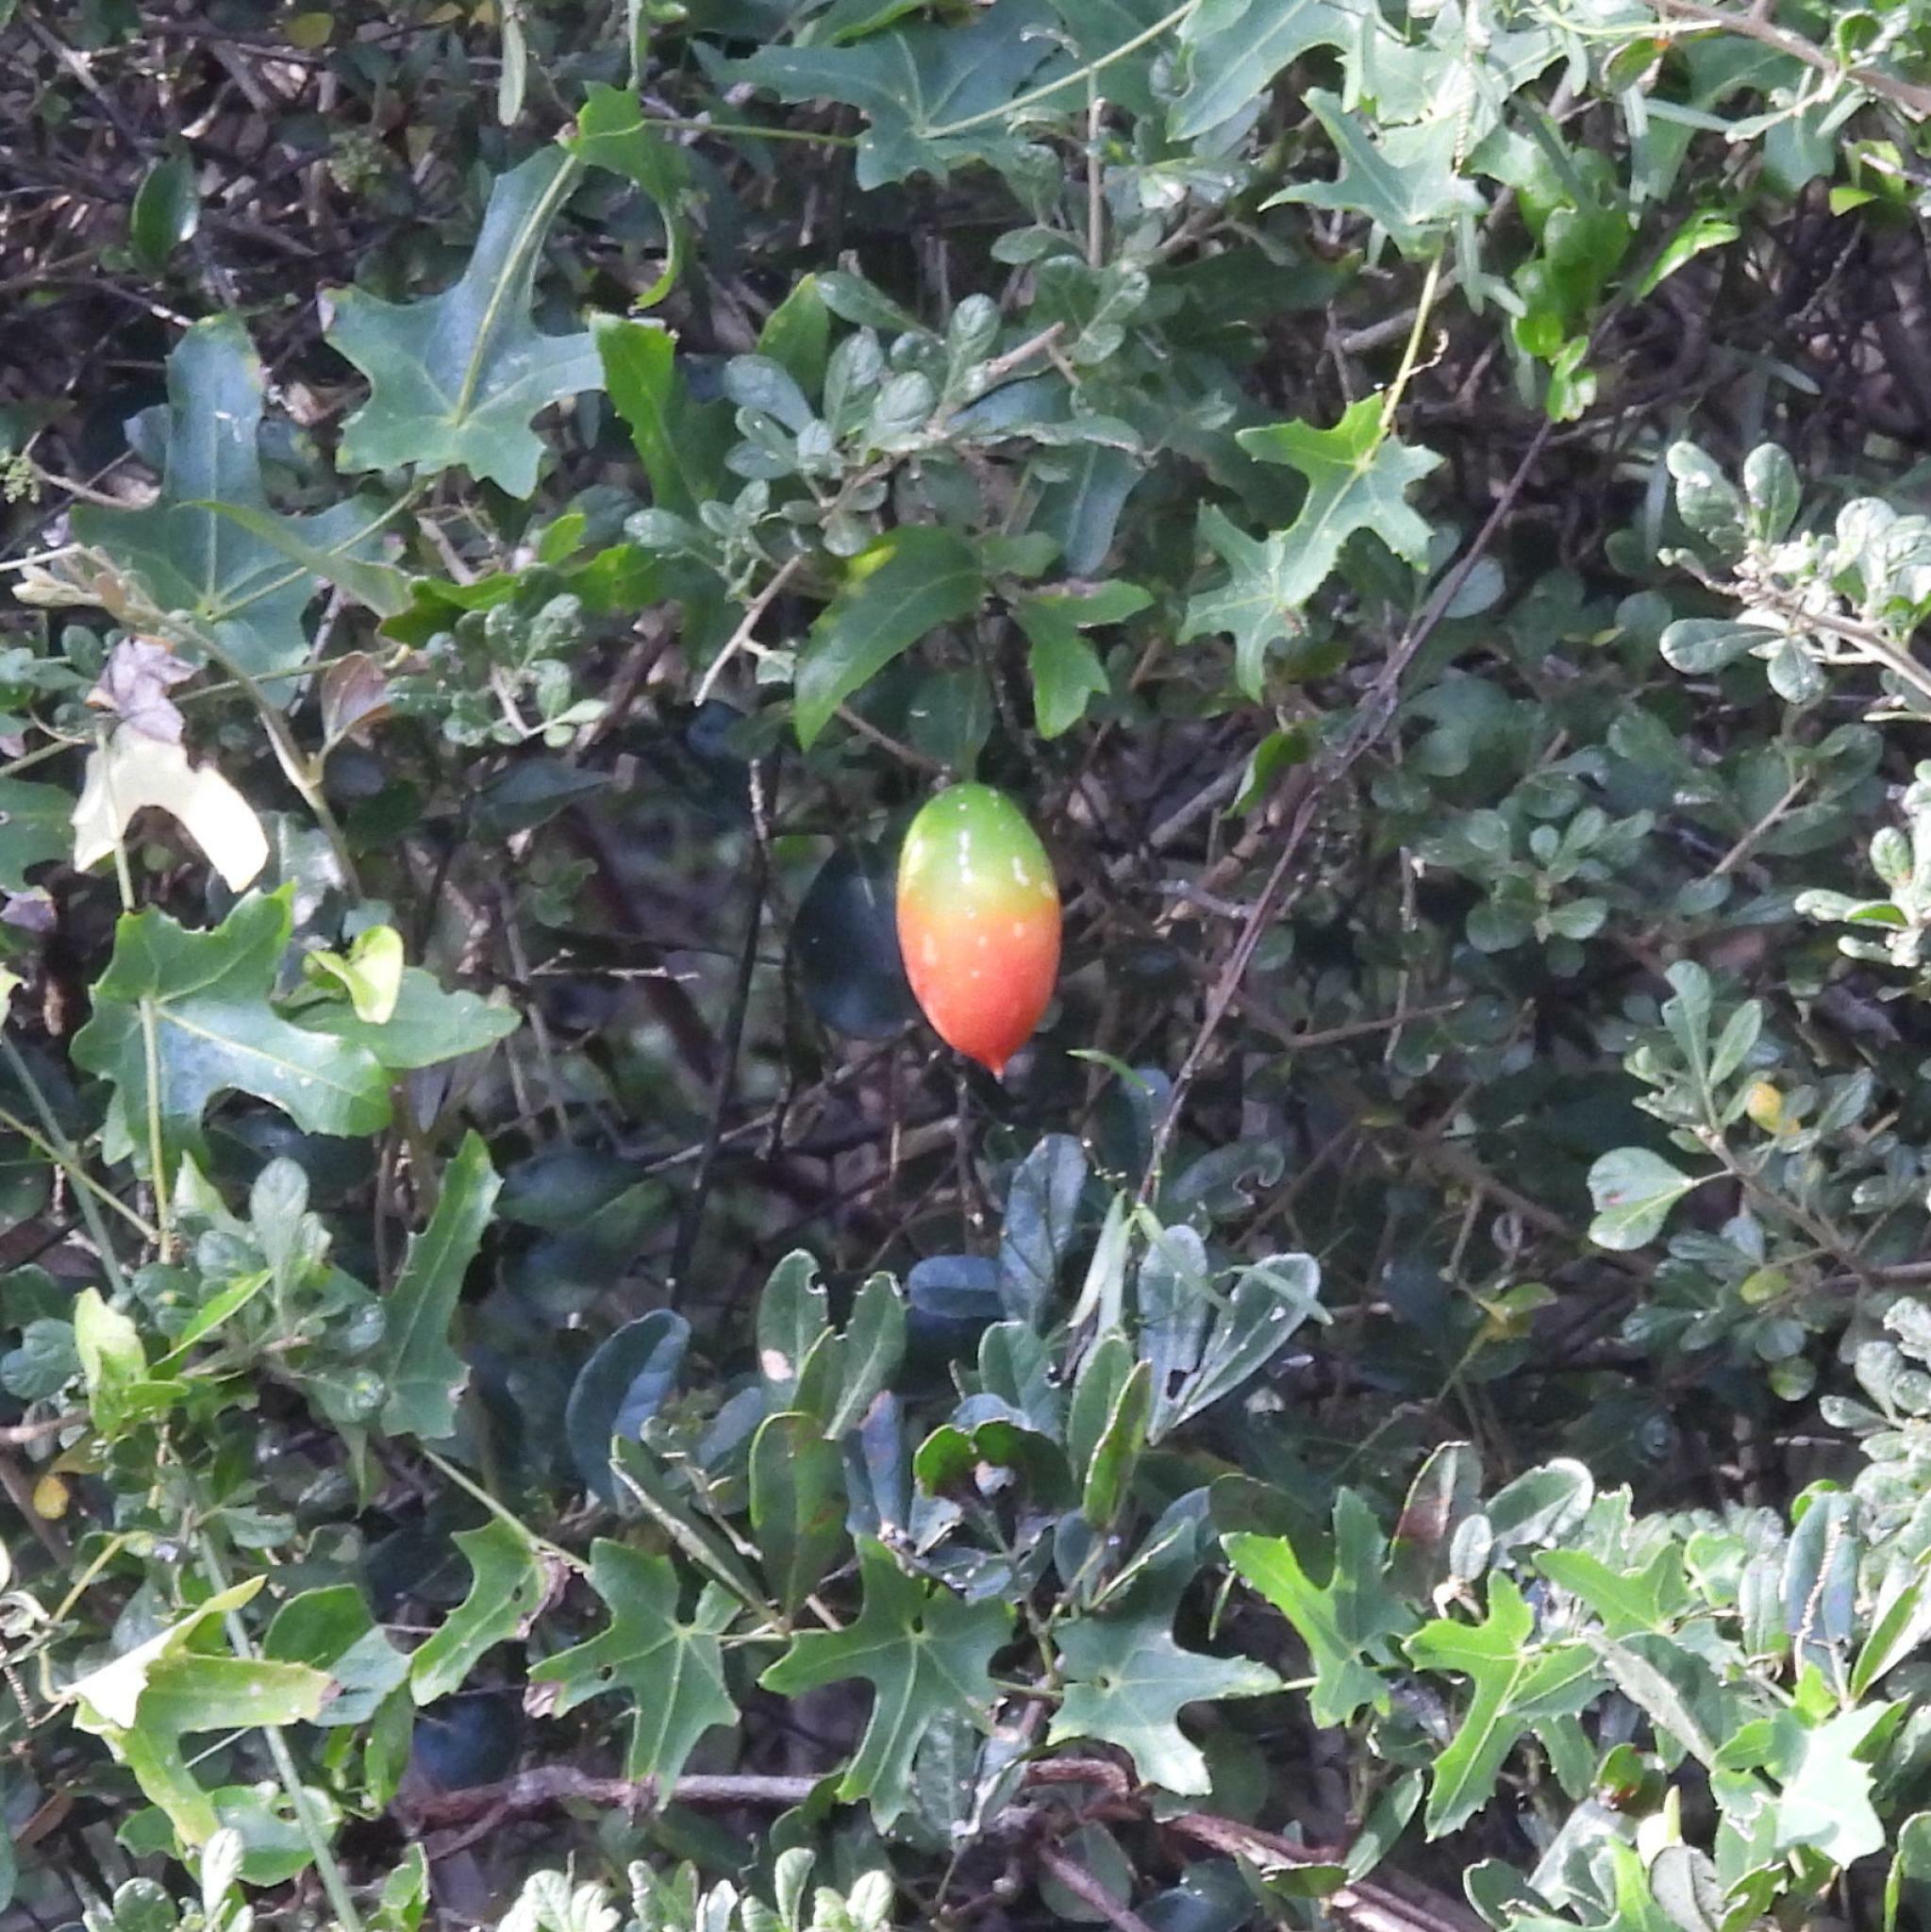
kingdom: Plantae
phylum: Tracheophyta
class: Magnoliopsida
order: Cucurbitales
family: Cucurbitaceae
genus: Coccinia
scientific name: Coccinia quinqueloba
